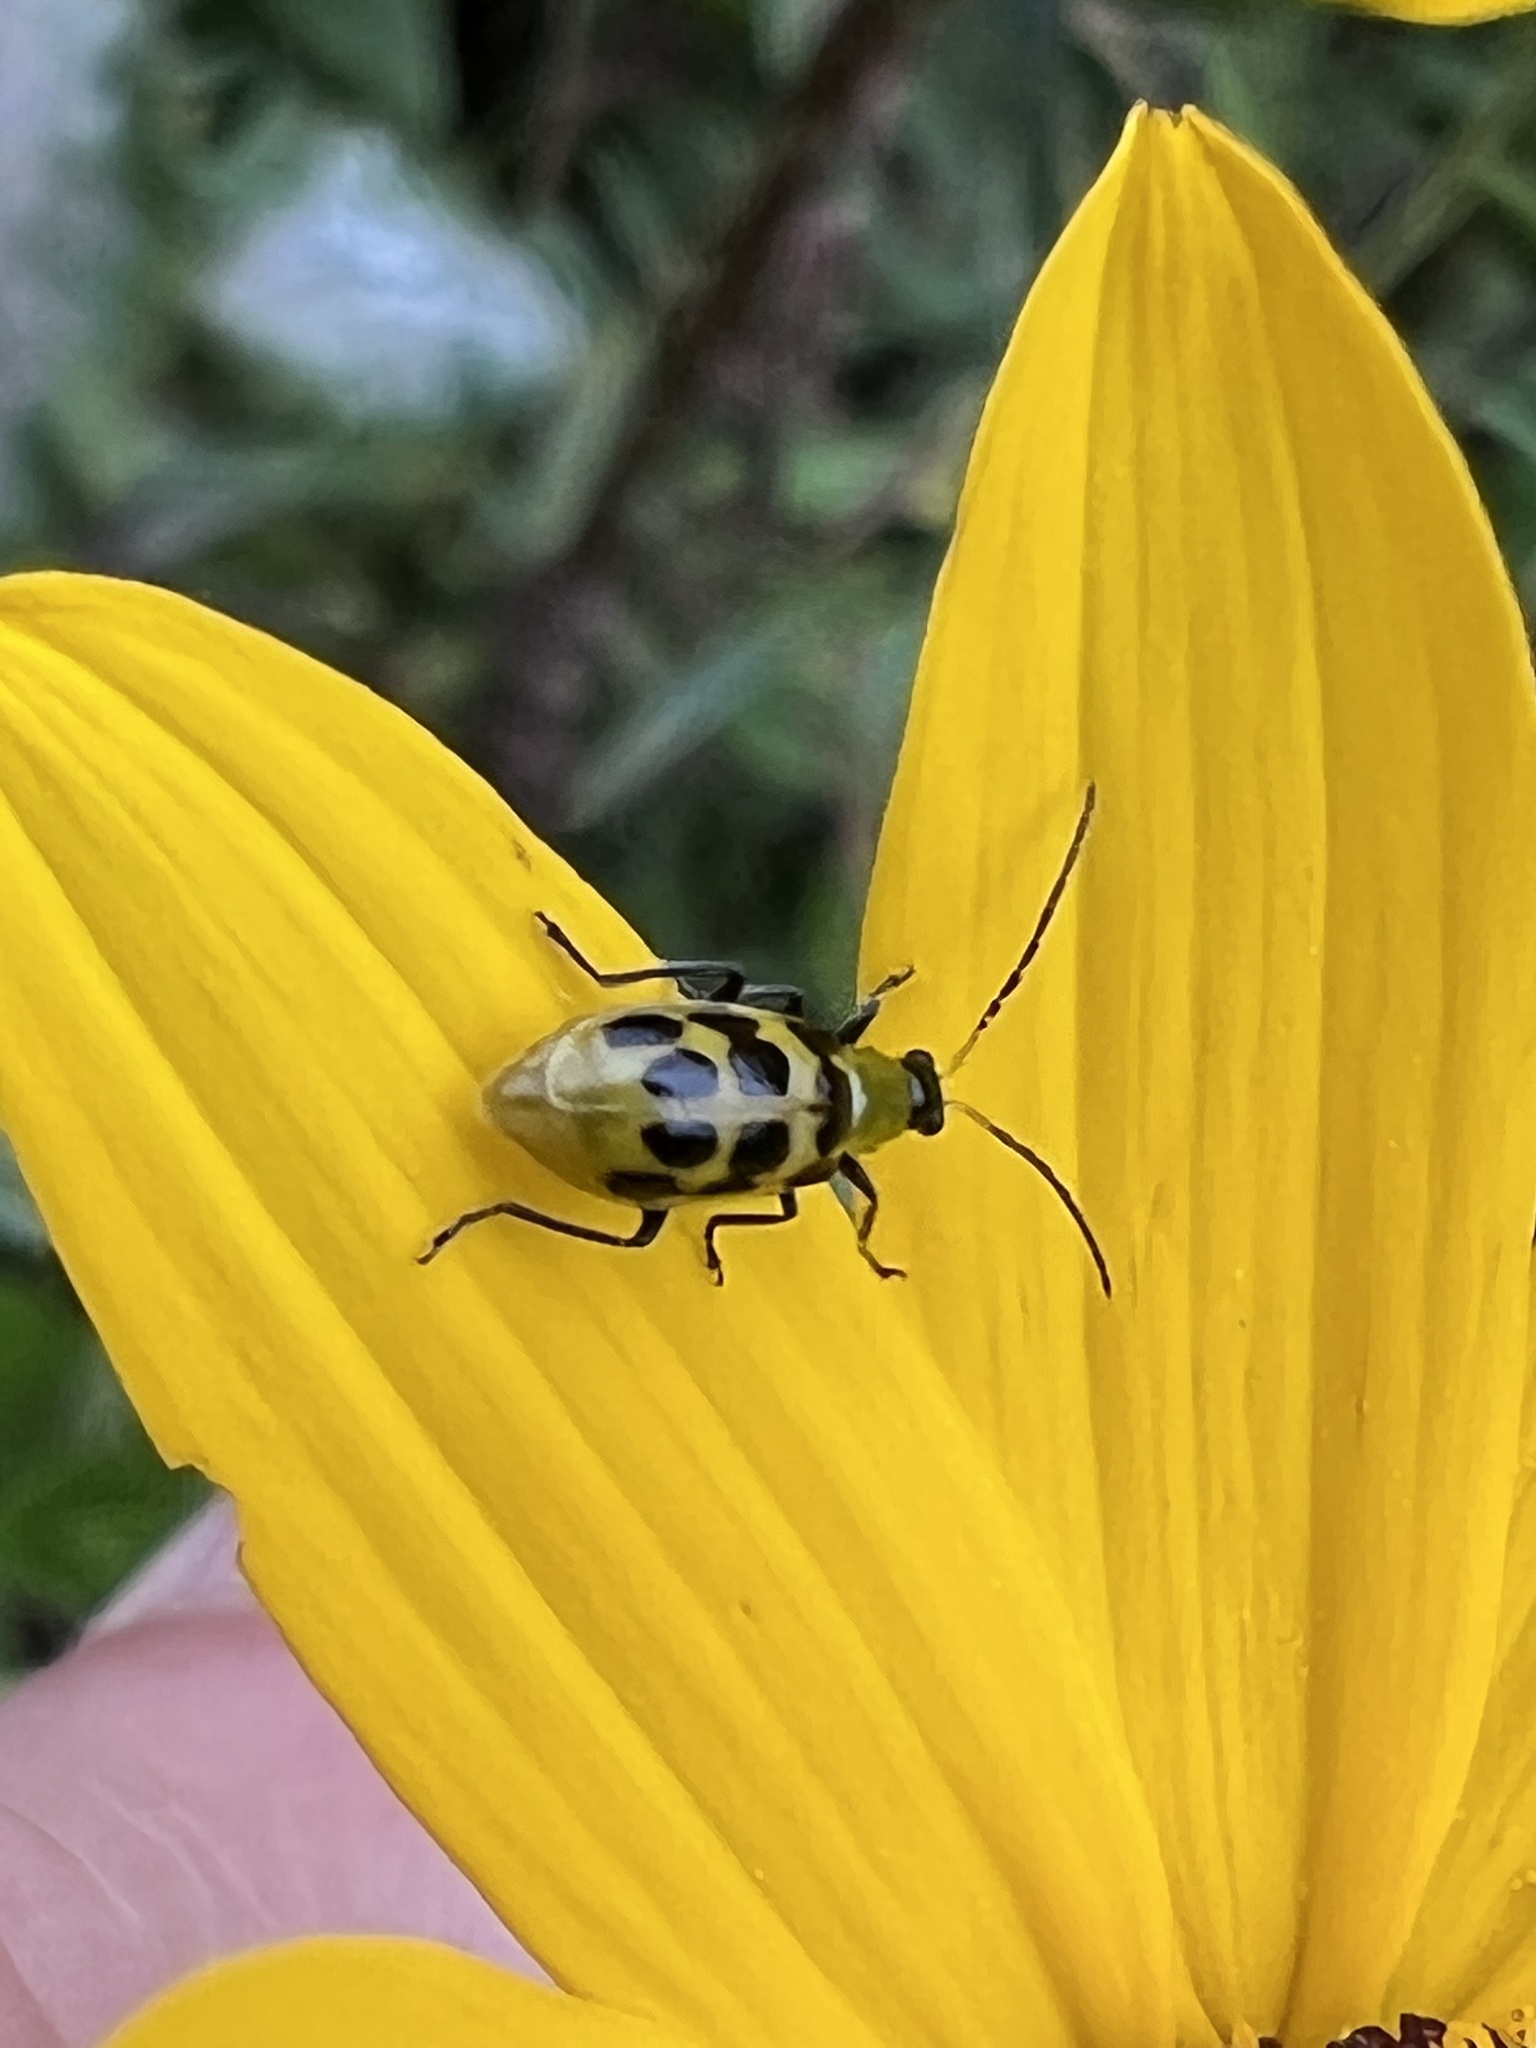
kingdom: Animalia
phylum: Arthropoda
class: Insecta
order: Coleoptera
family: Chrysomelidae
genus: Diabrotica
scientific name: Diabrotica undecimpunctata
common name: Spotted cucumber beetle
